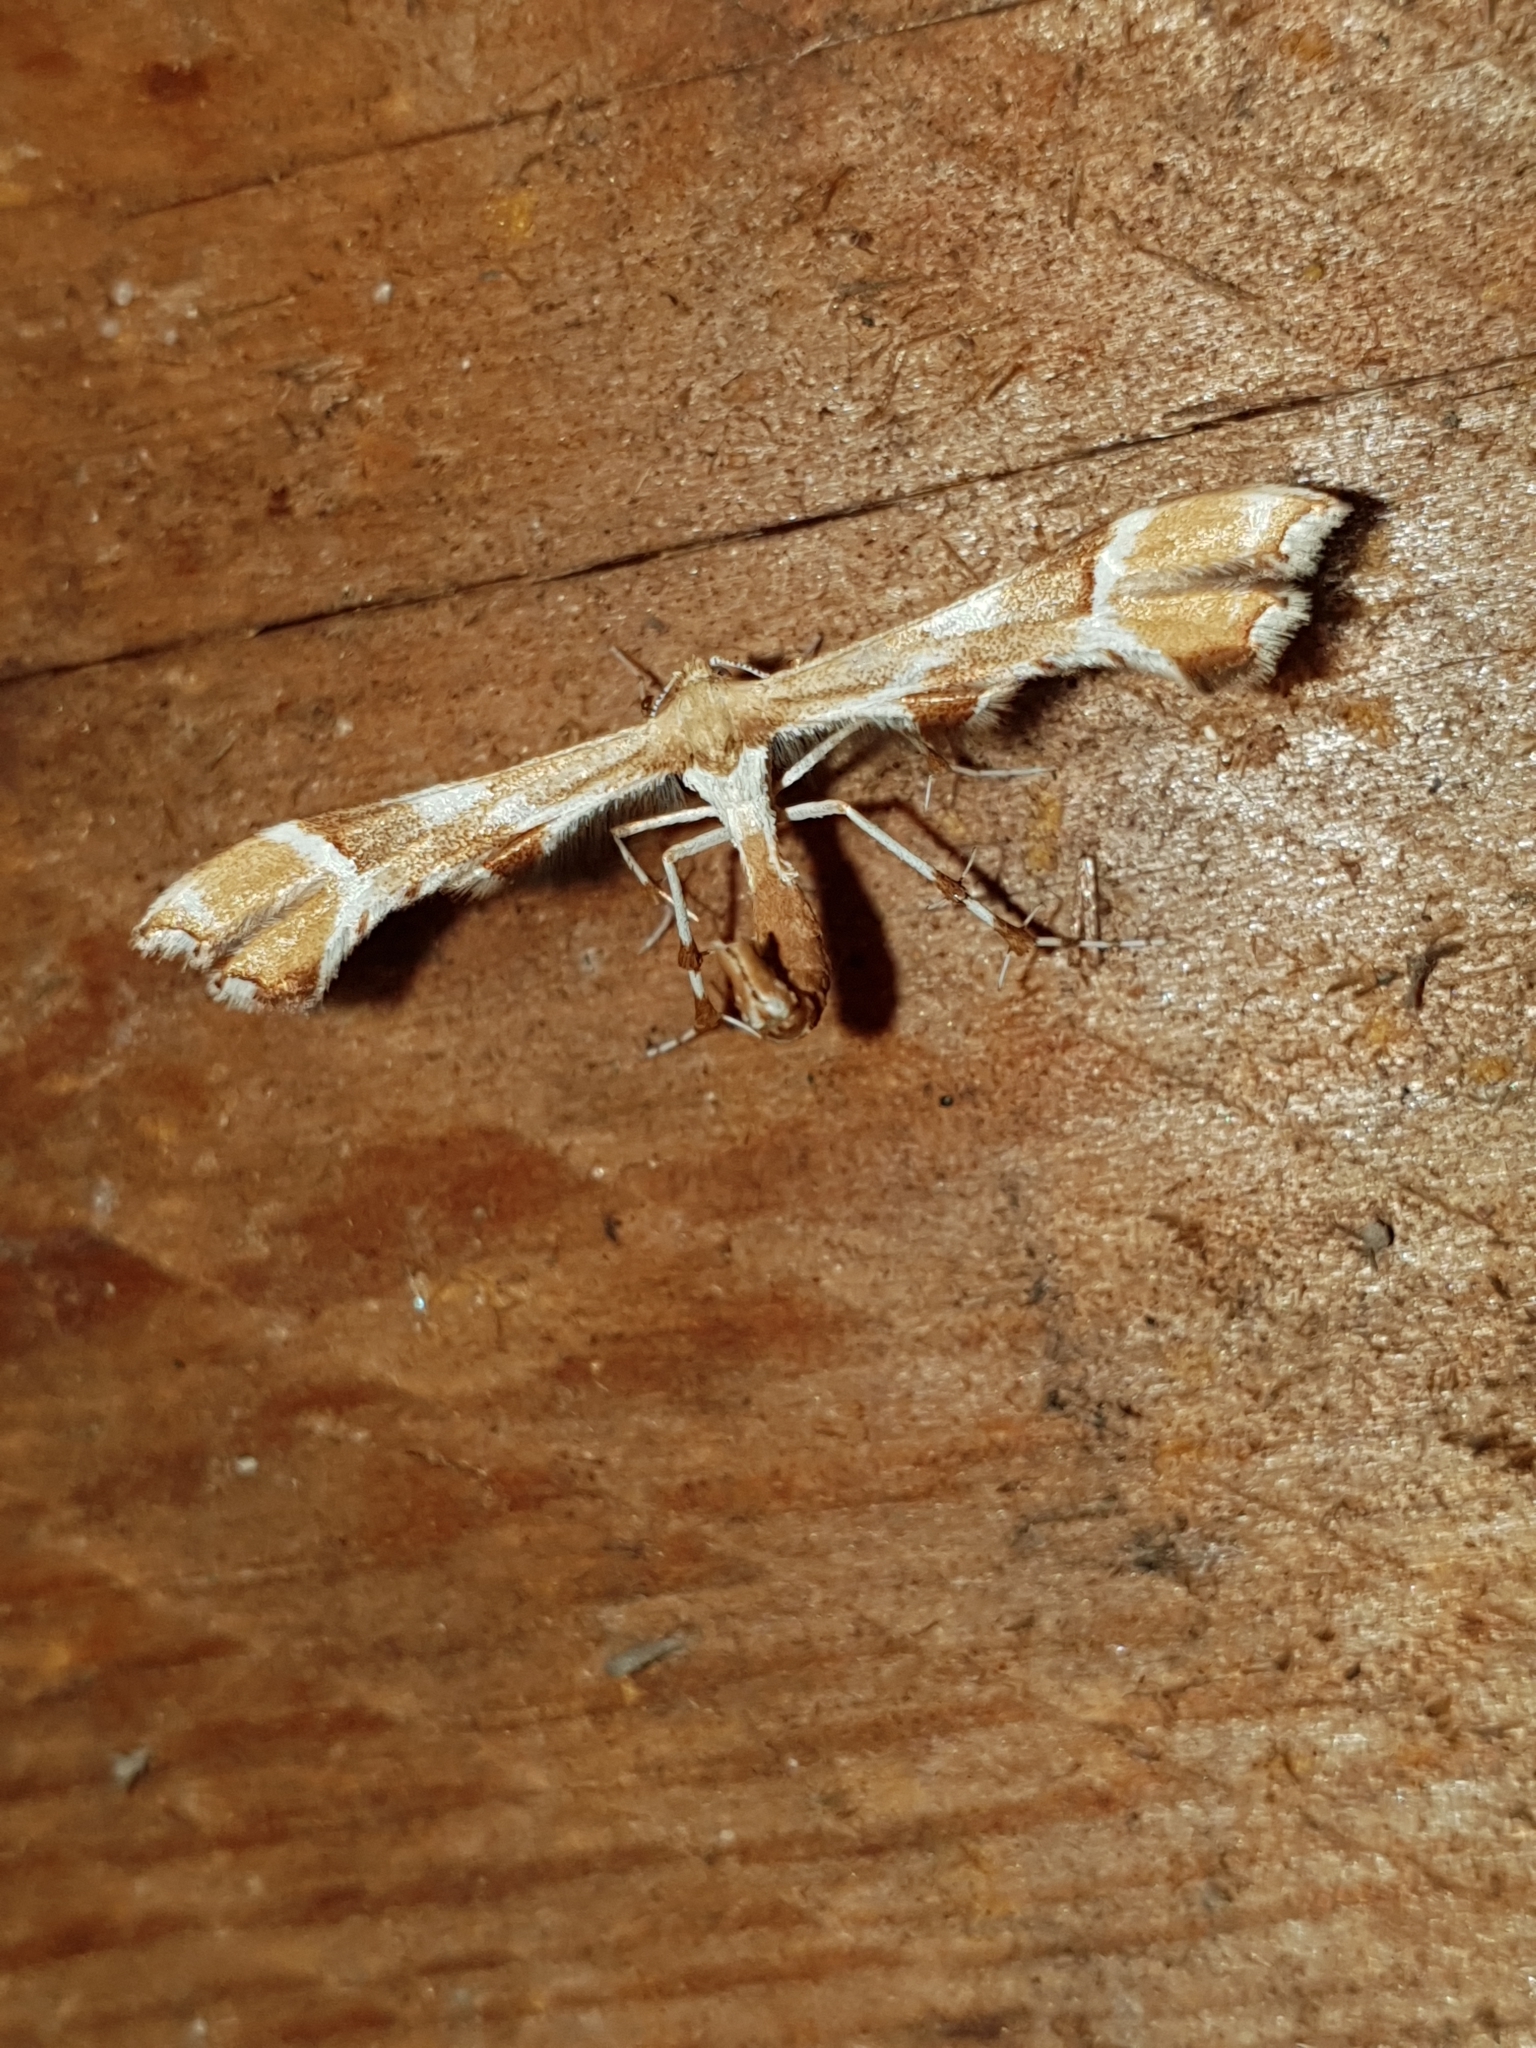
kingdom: Animalia
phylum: Arthropoda
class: Insecta
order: Lepidoptera
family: Pterophoridae
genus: Cnaemidophorus
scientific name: Cnaemidophorus rhododactyla
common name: Rose plume
